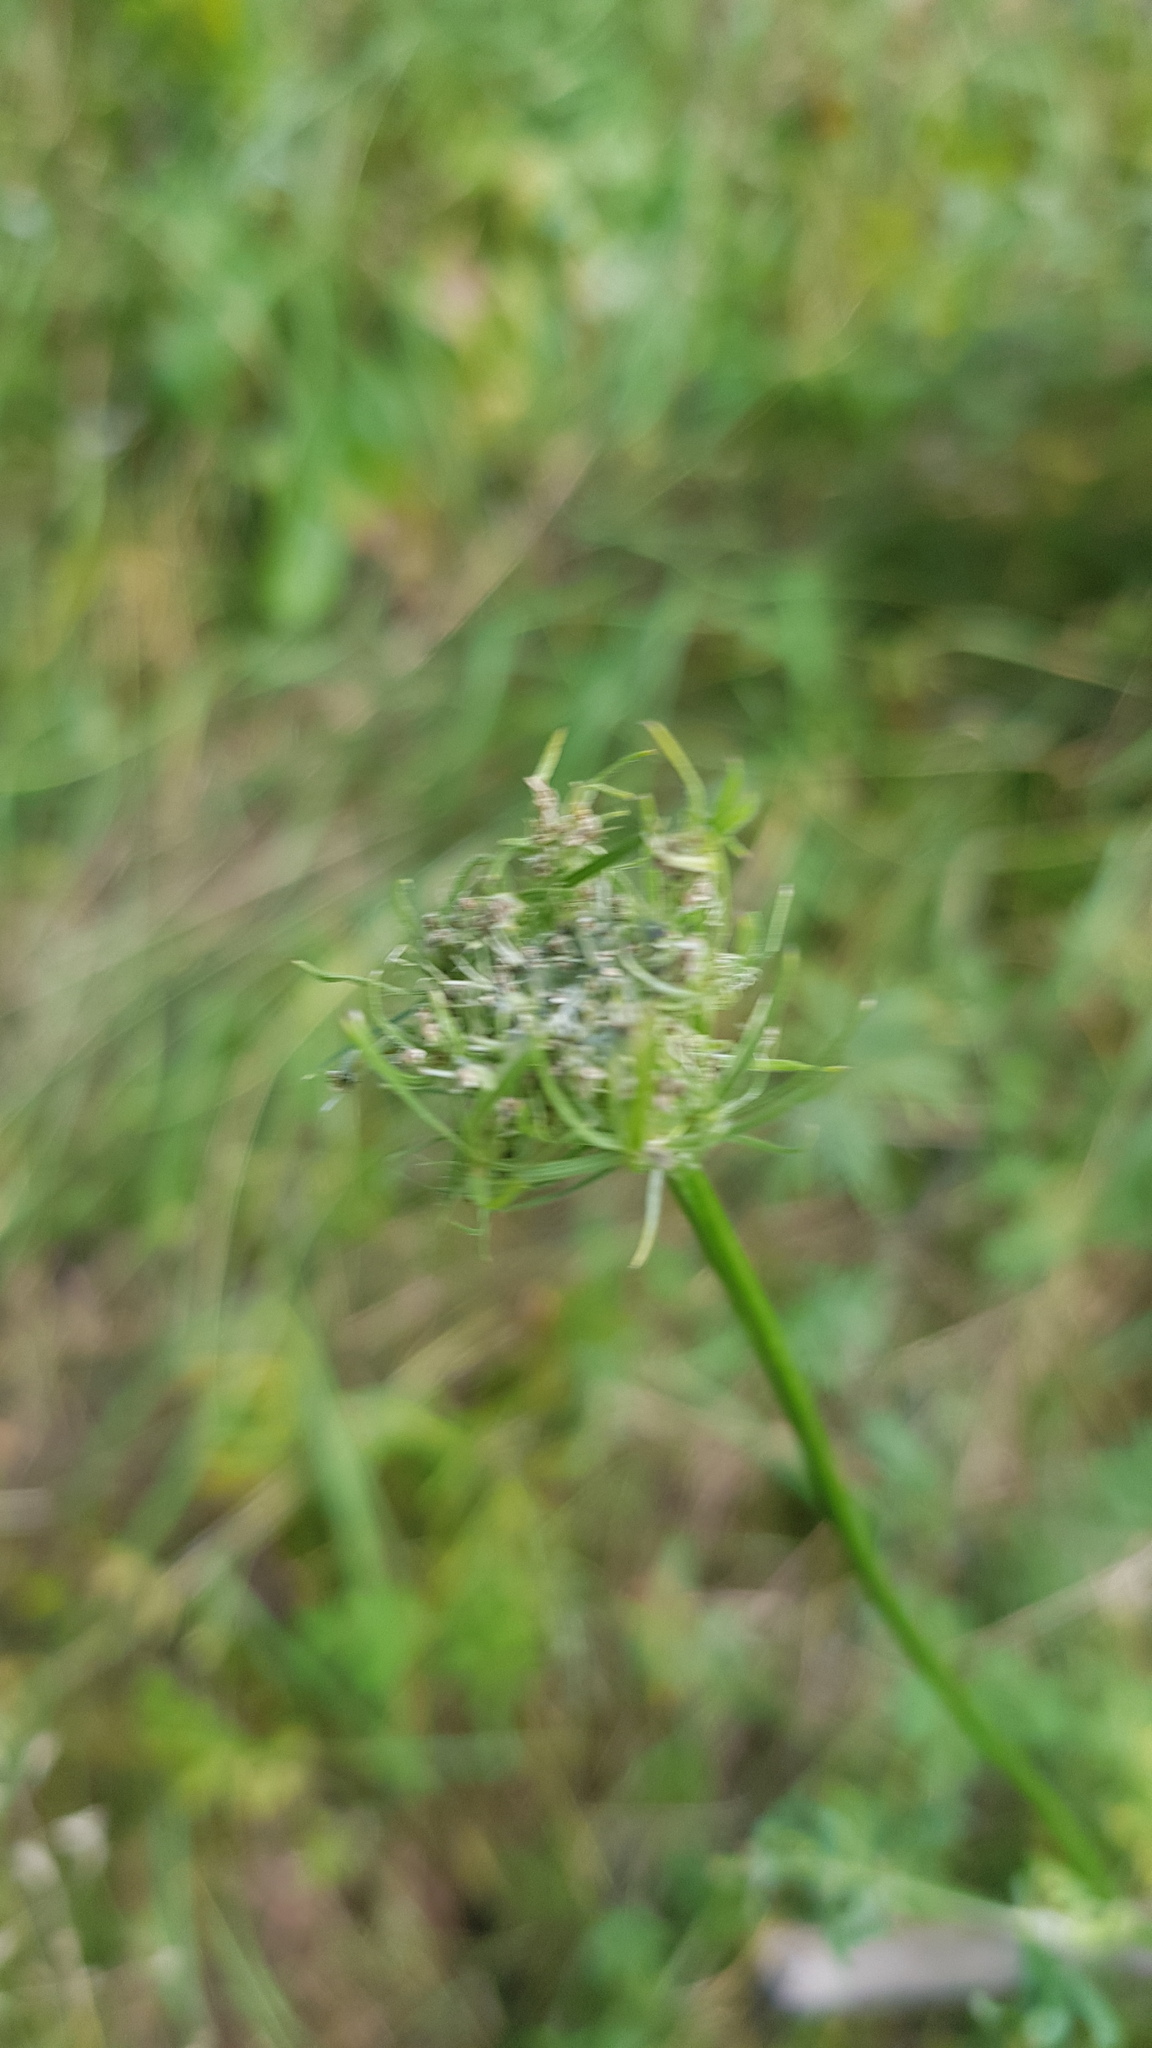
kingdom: Plantae
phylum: Tracheophyta
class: Magnoliopsida
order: Apiales
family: Apiaceae
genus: Pleurospermum
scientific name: Pleurospermum uralense
